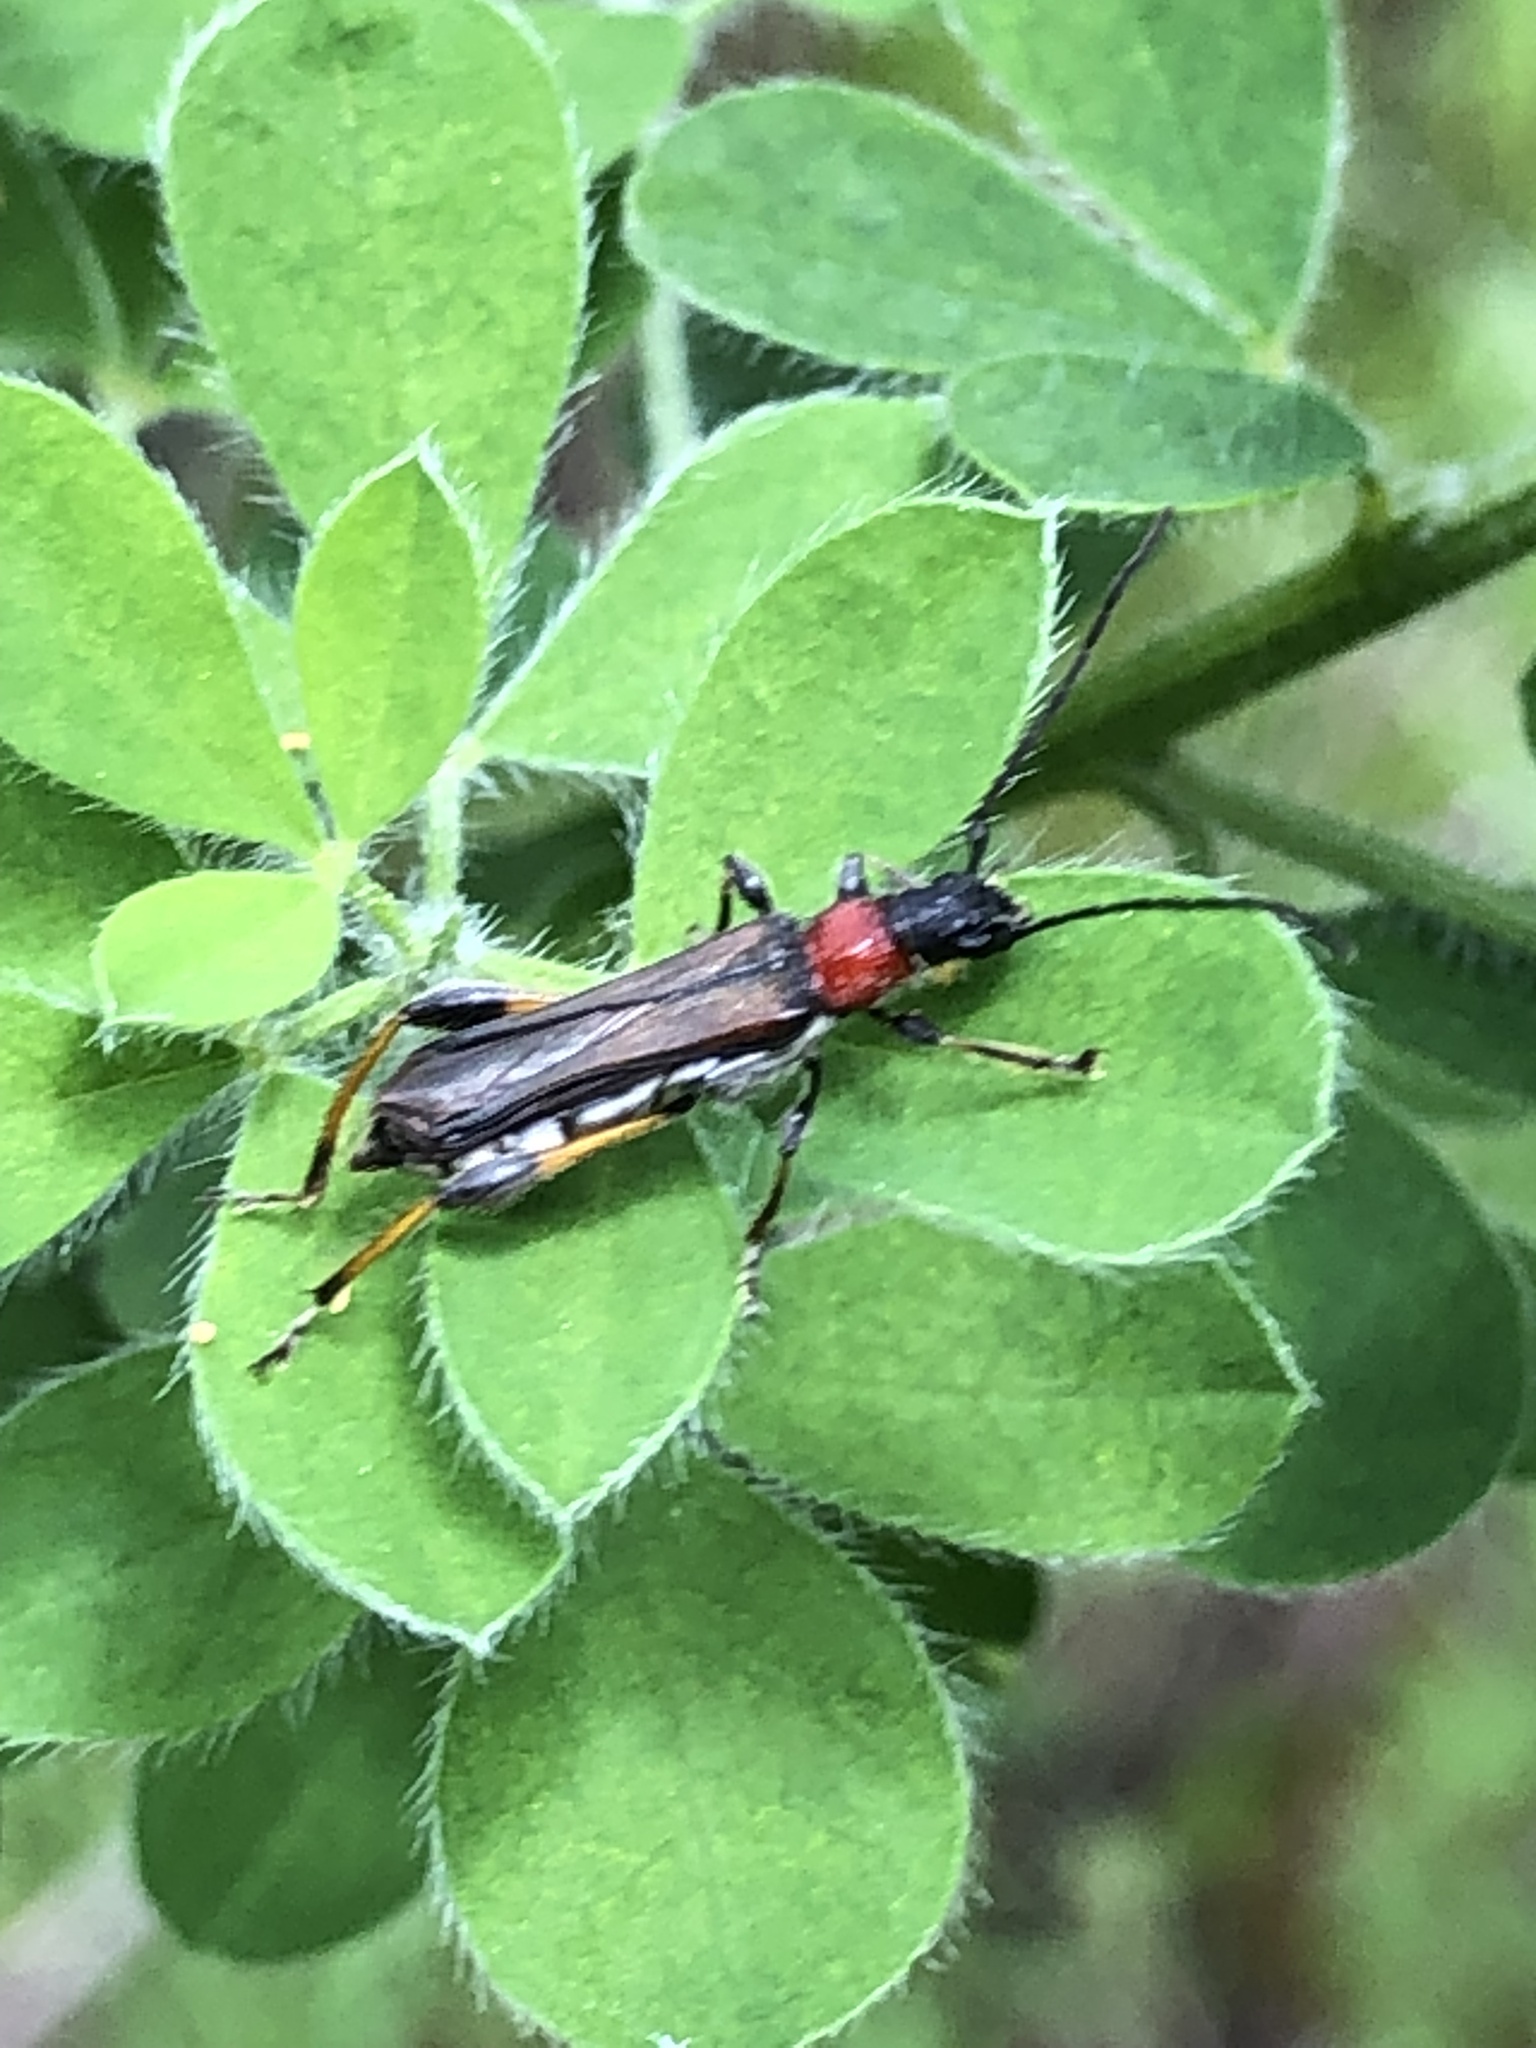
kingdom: Animalia
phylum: Arthropoda
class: Insecta
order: Coleoptera
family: Cerambycidae
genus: Callimoxys
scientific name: Callimoxys fuscipennis
